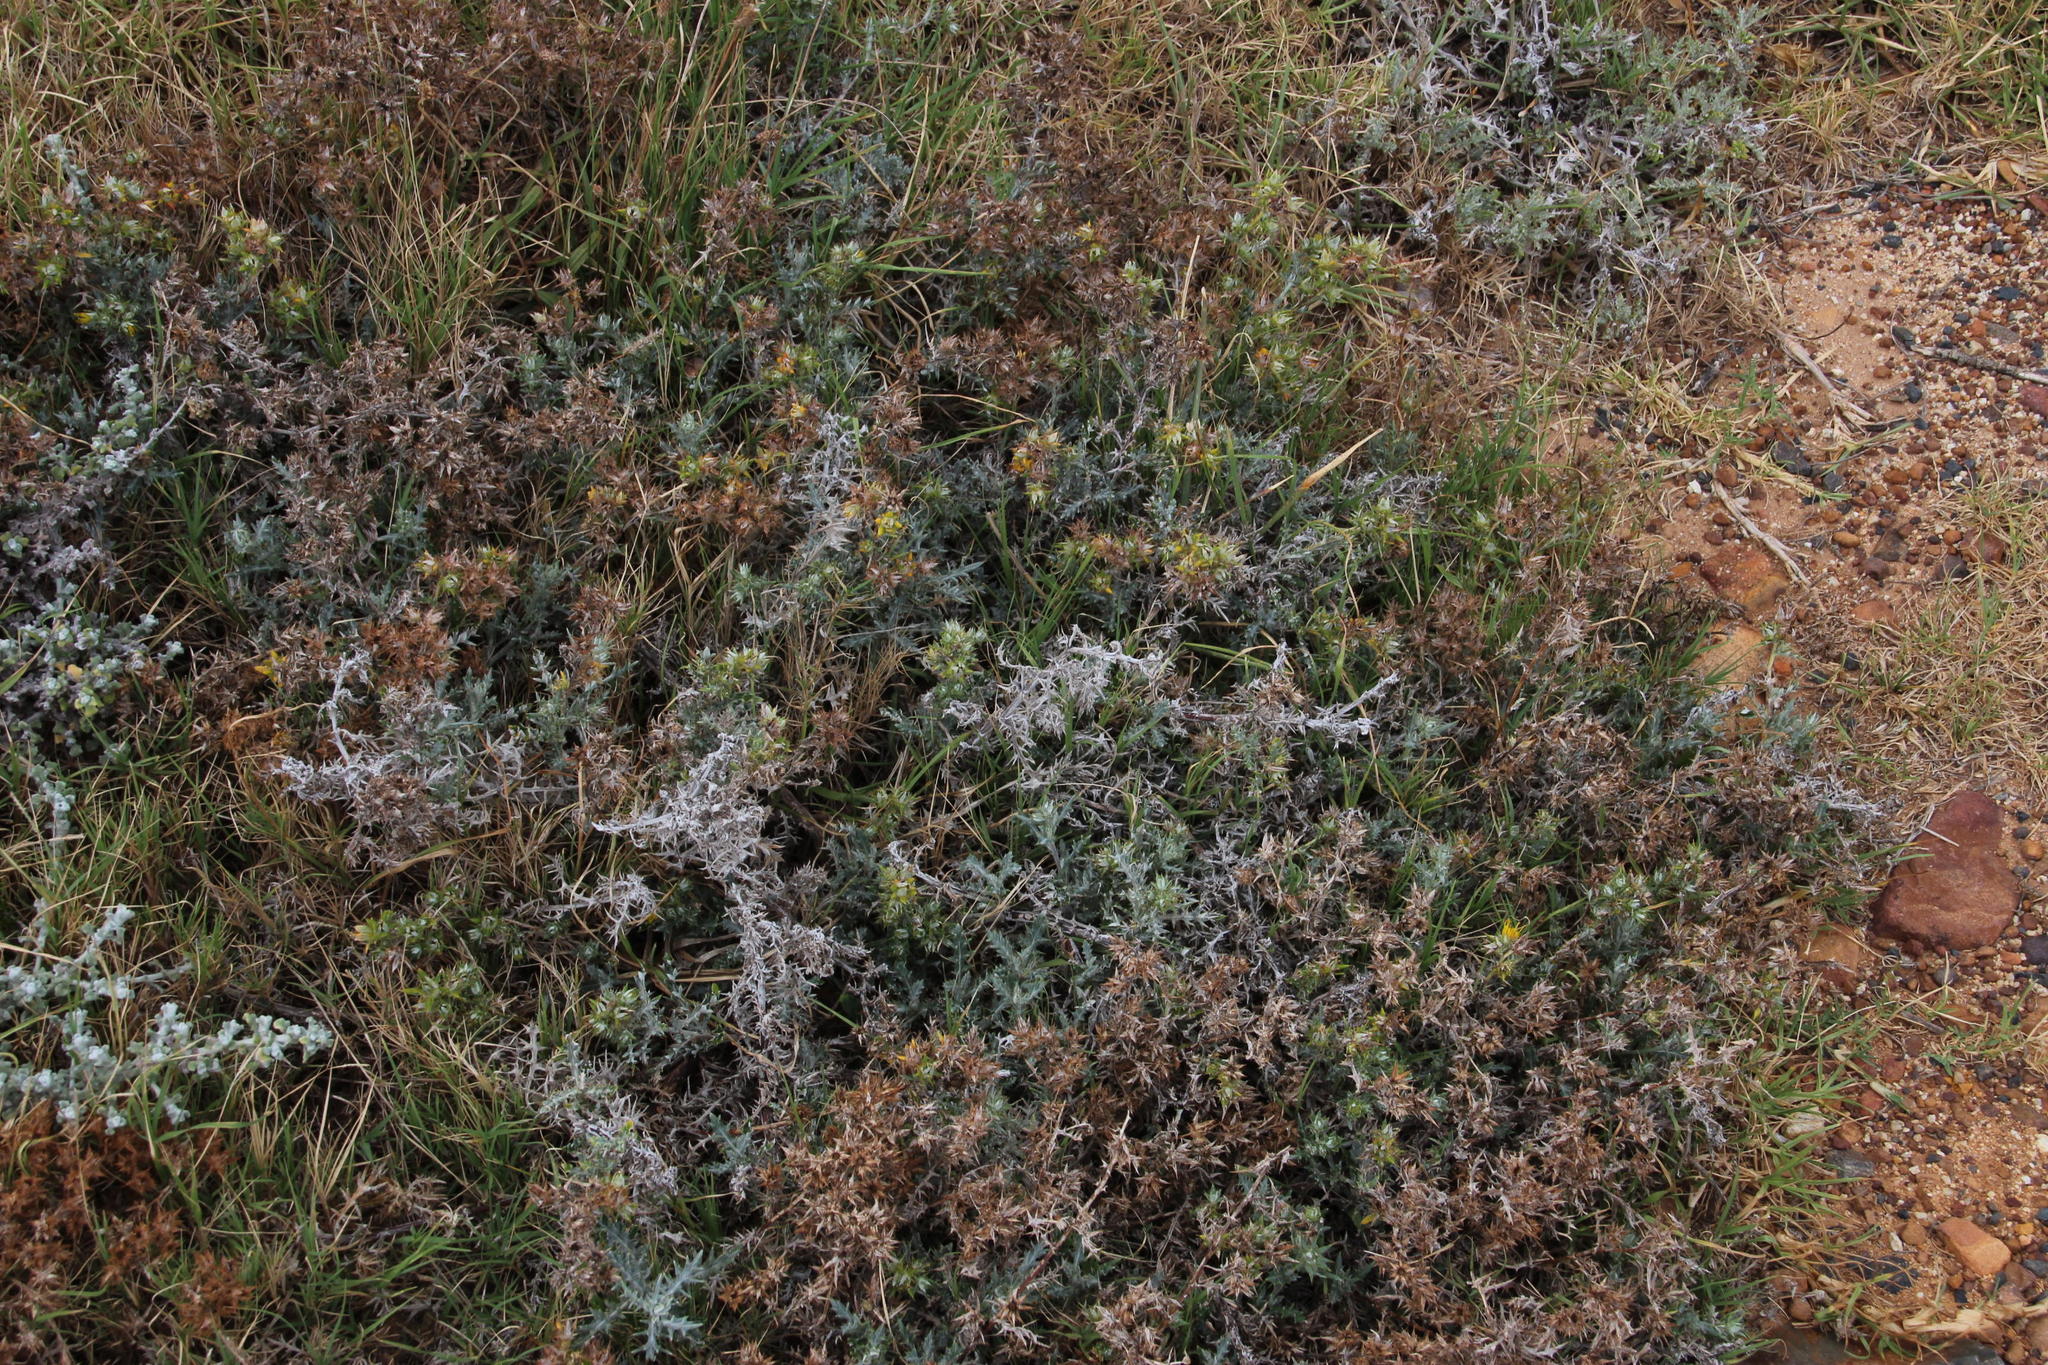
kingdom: Plantae
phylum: Tracheophyta
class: Magnoliopsida
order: Asterales
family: Asteraceae
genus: Berkheya
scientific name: Berkheya rigida
